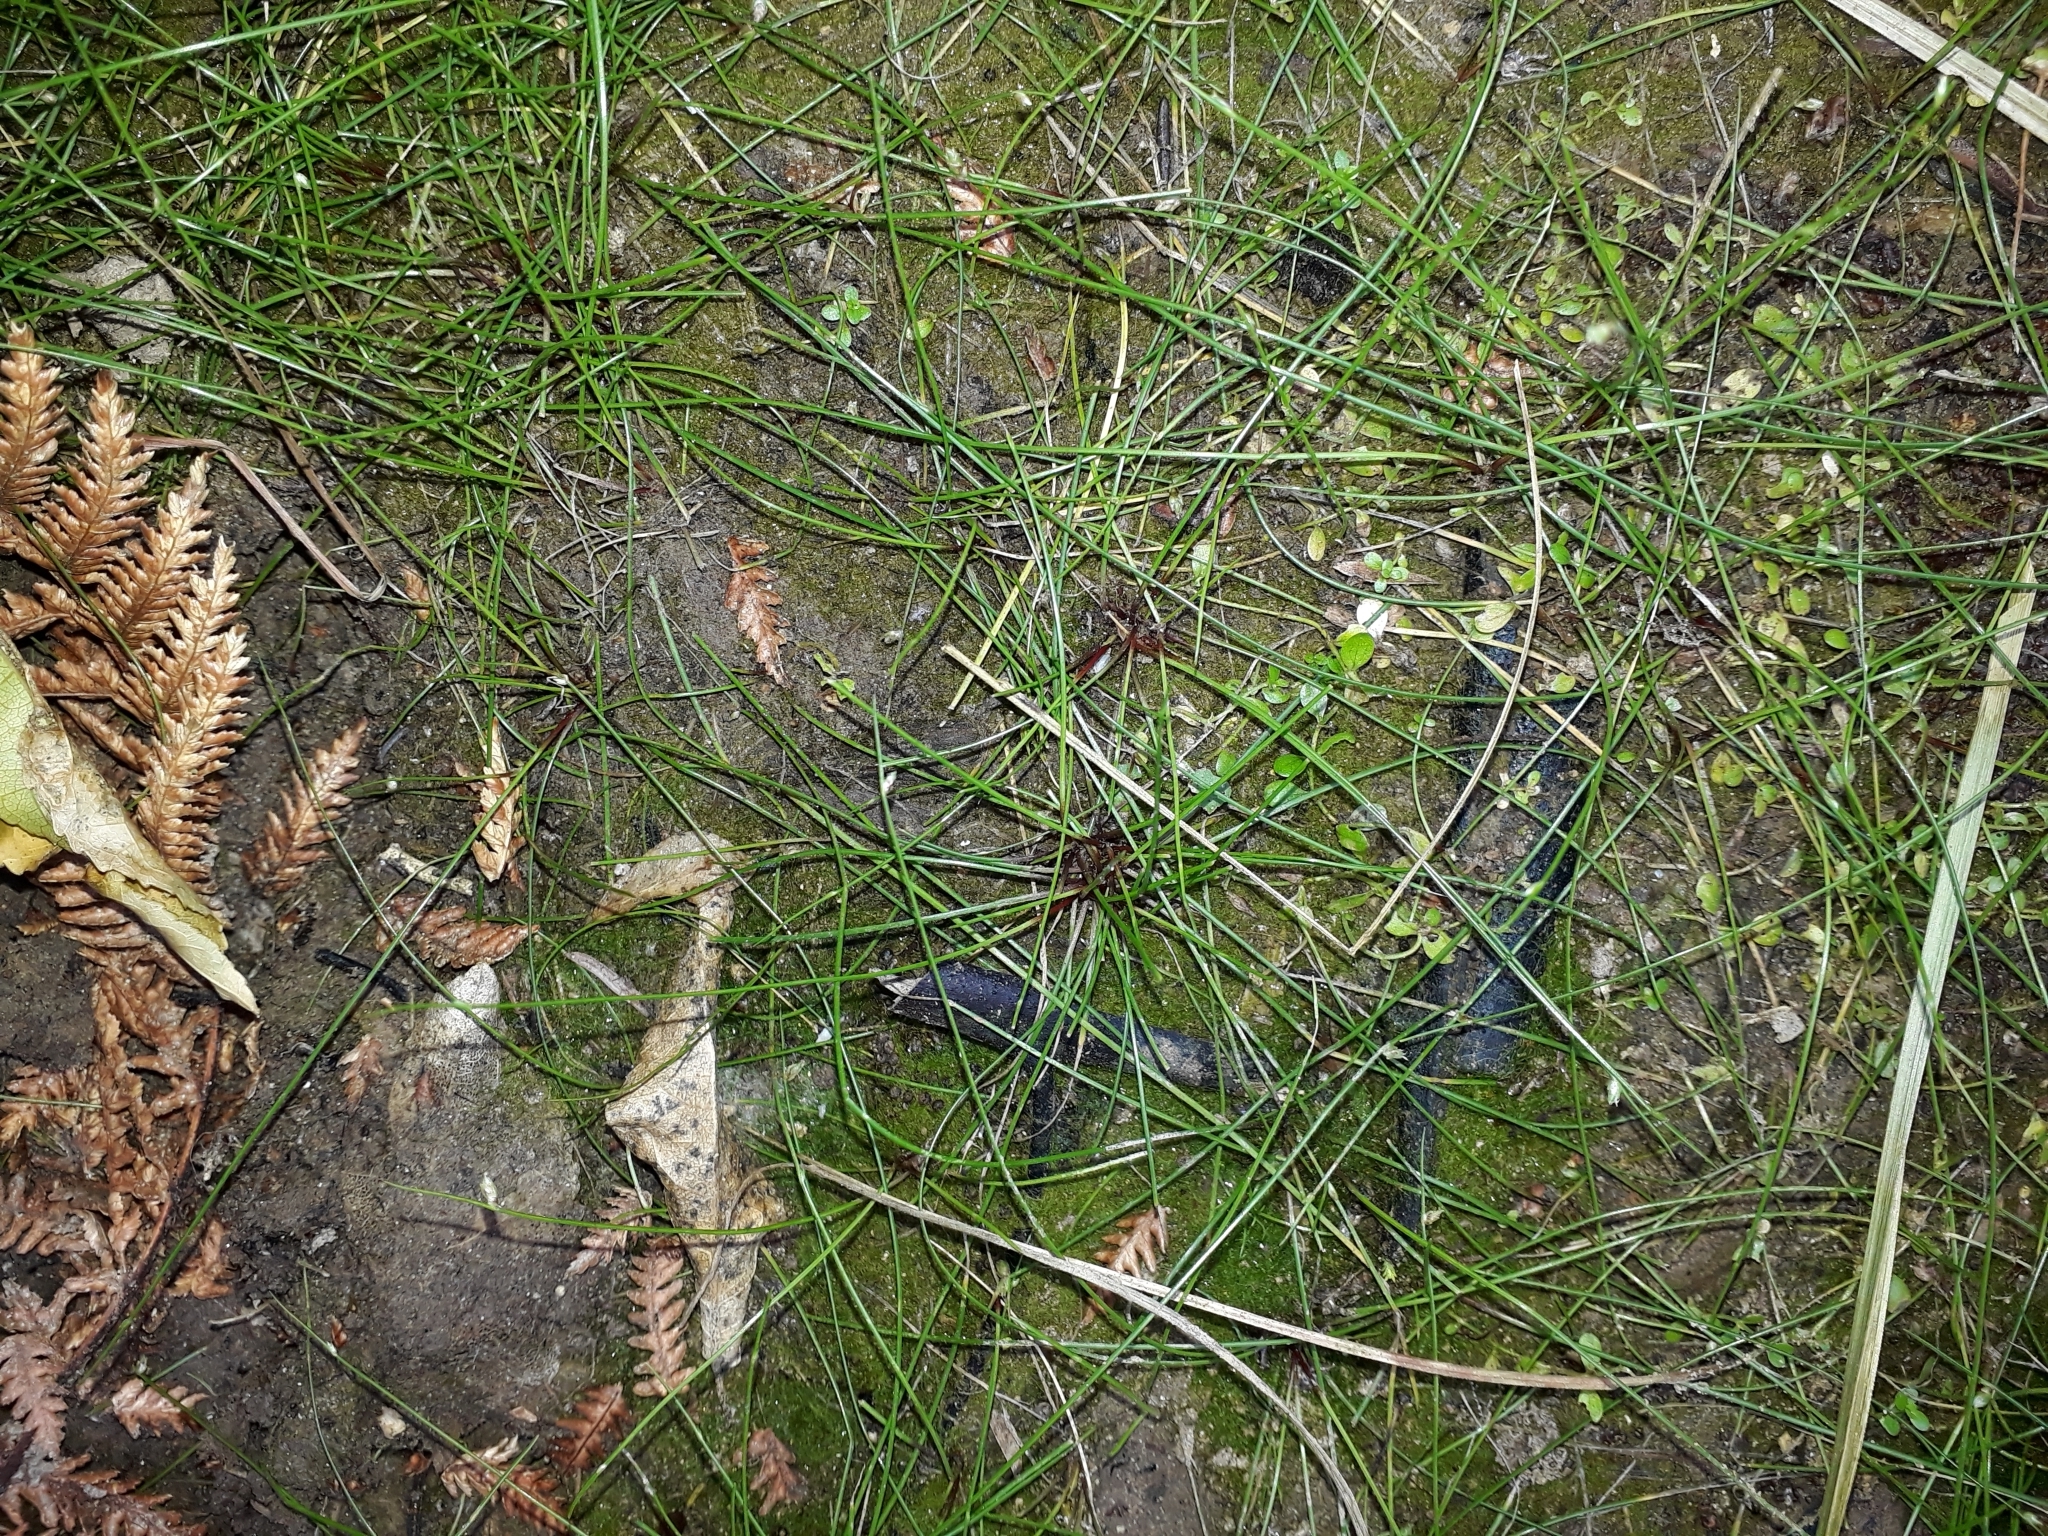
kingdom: Plantae
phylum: Tracheophyta
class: Liliopsida
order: Poales
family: Cyperaceae
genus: Isolepis
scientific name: Isolepis reticularis
